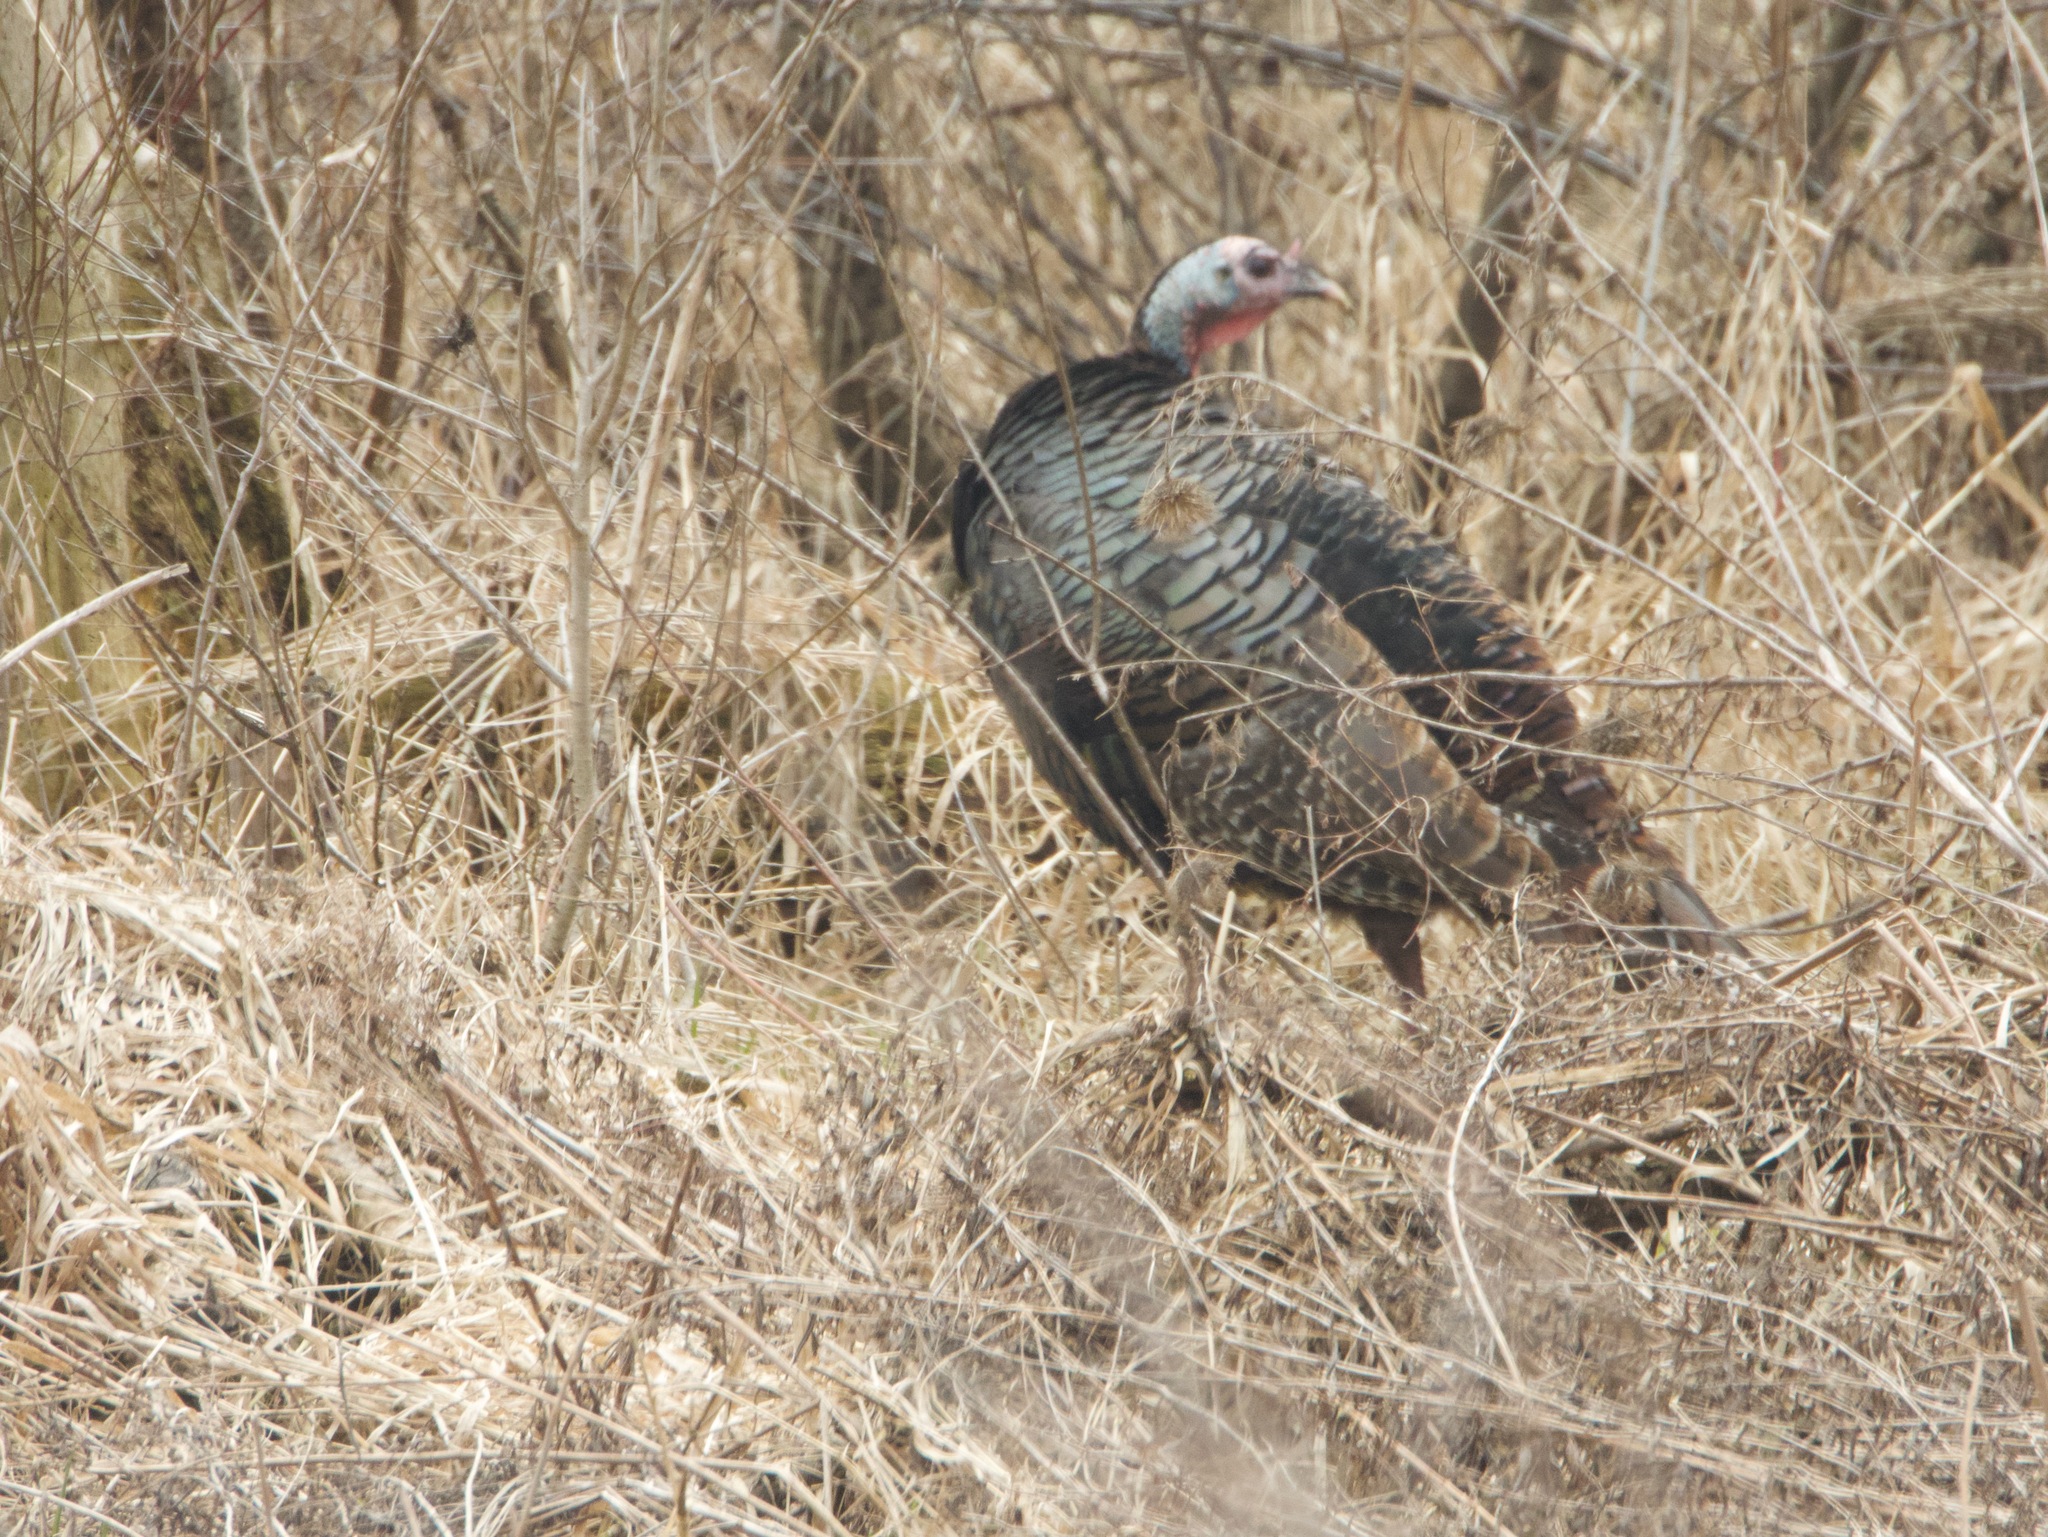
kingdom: Animalia
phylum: Chordata
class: Aves
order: Galliformes
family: Phasianidae
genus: Meleagris
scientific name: Meleagris gallopavo
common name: Wild turkey
